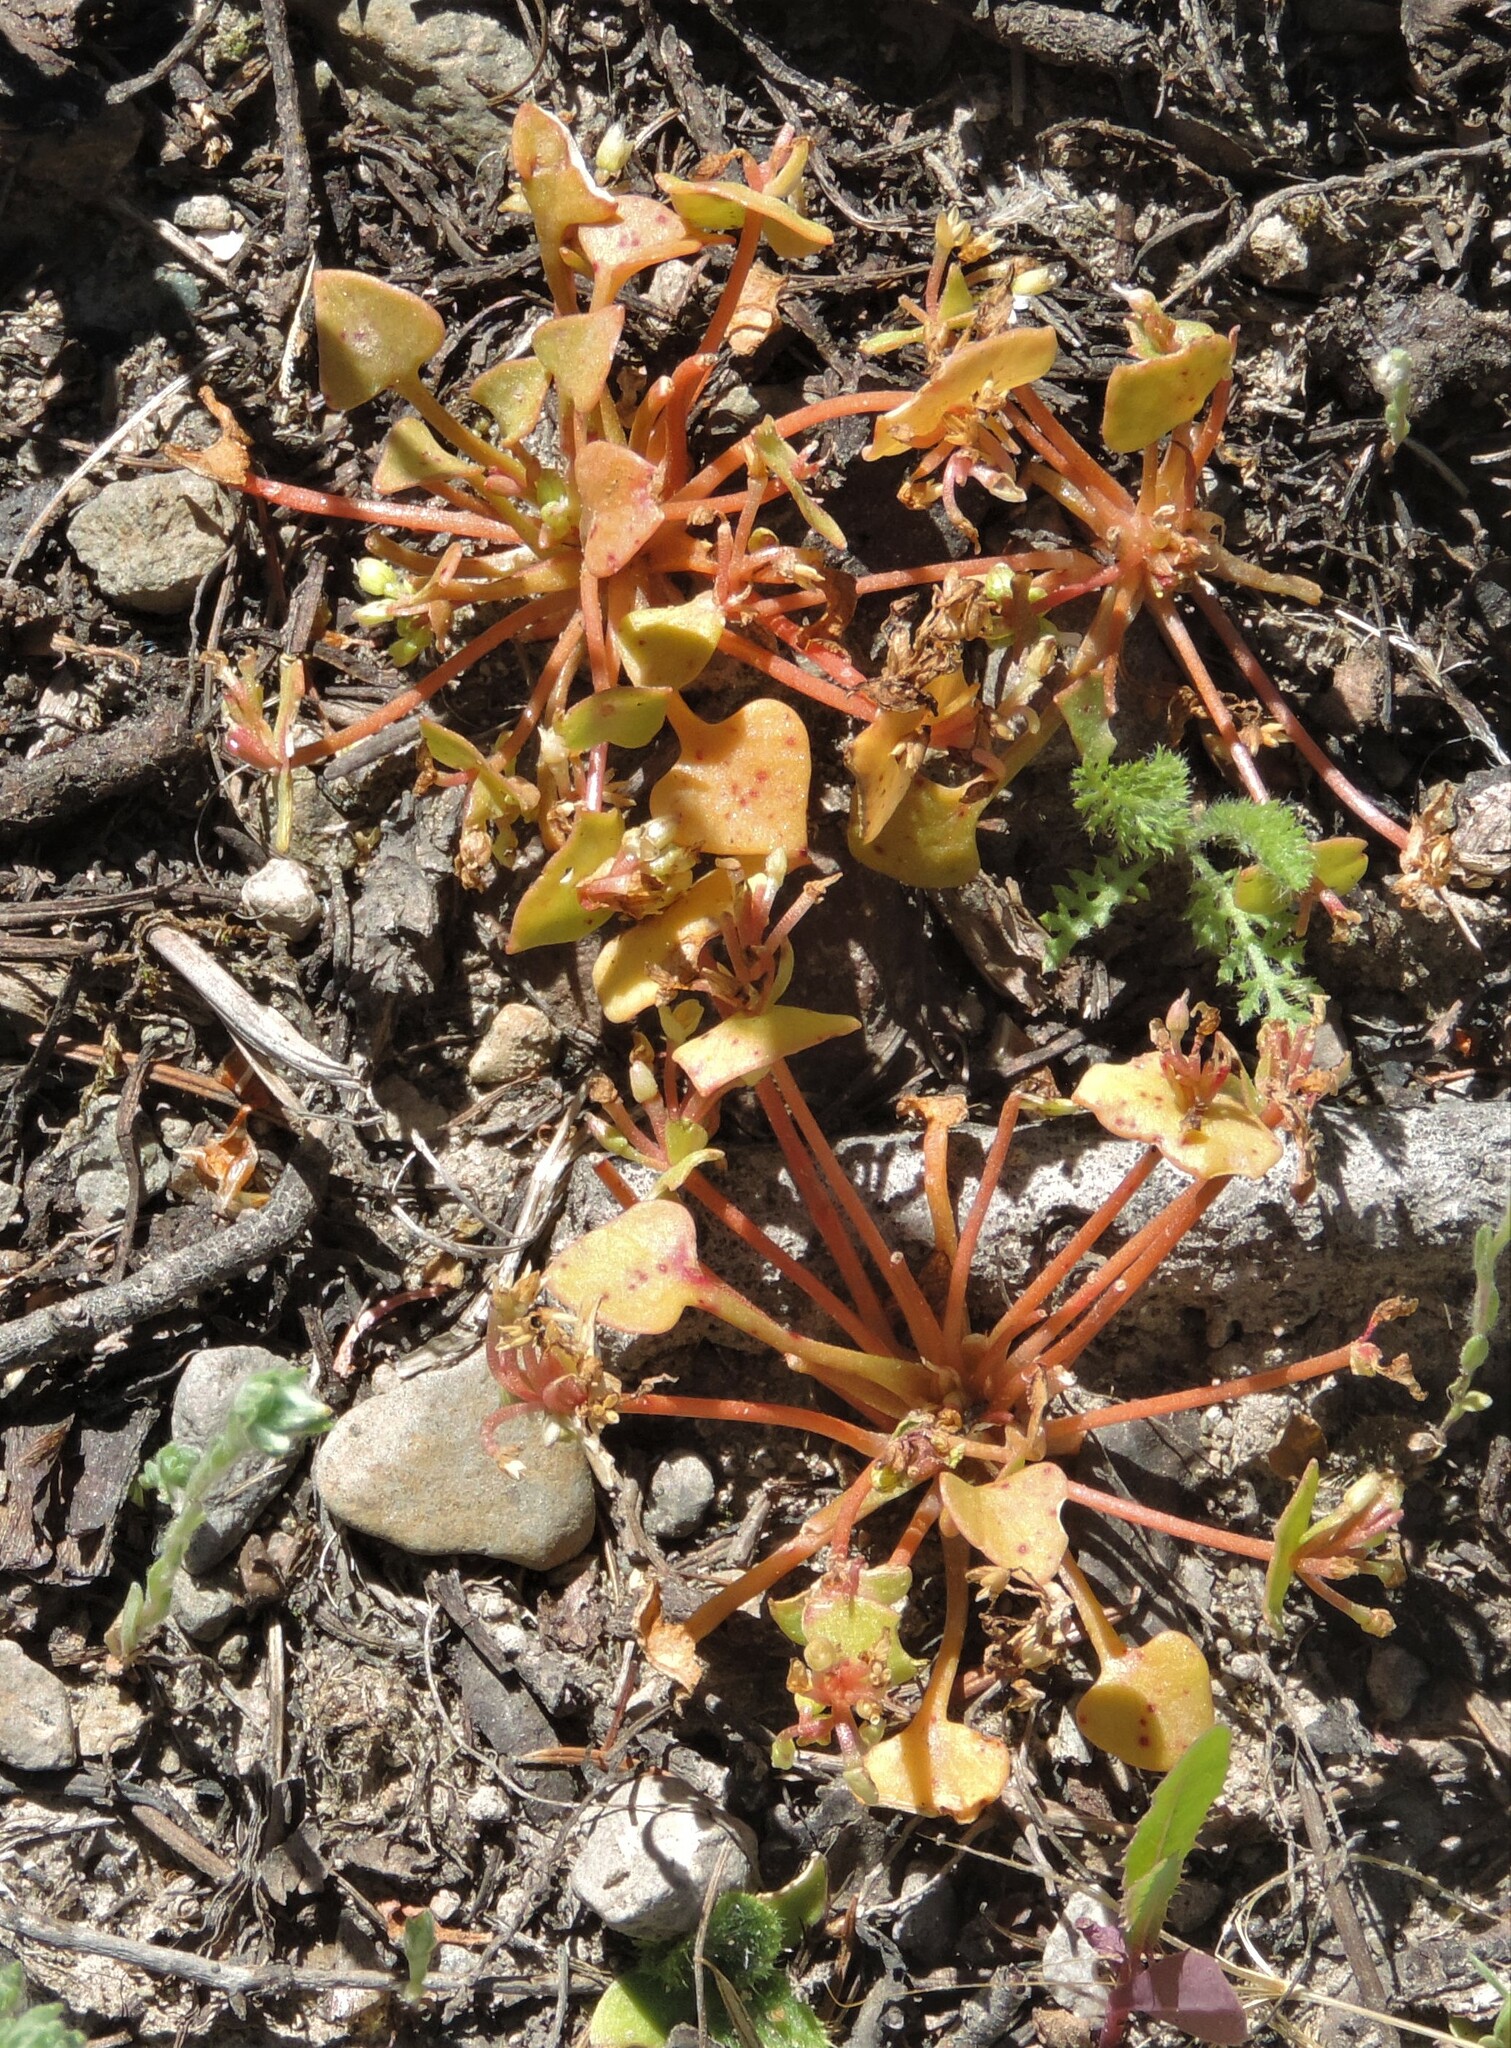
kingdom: Plantae
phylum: Tracheophyta
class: Magnoliopsida
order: Caryophyllales
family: Montiaceae
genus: Claytonia
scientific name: Claytonia rubra
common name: Erubescent miner's-lettuce
